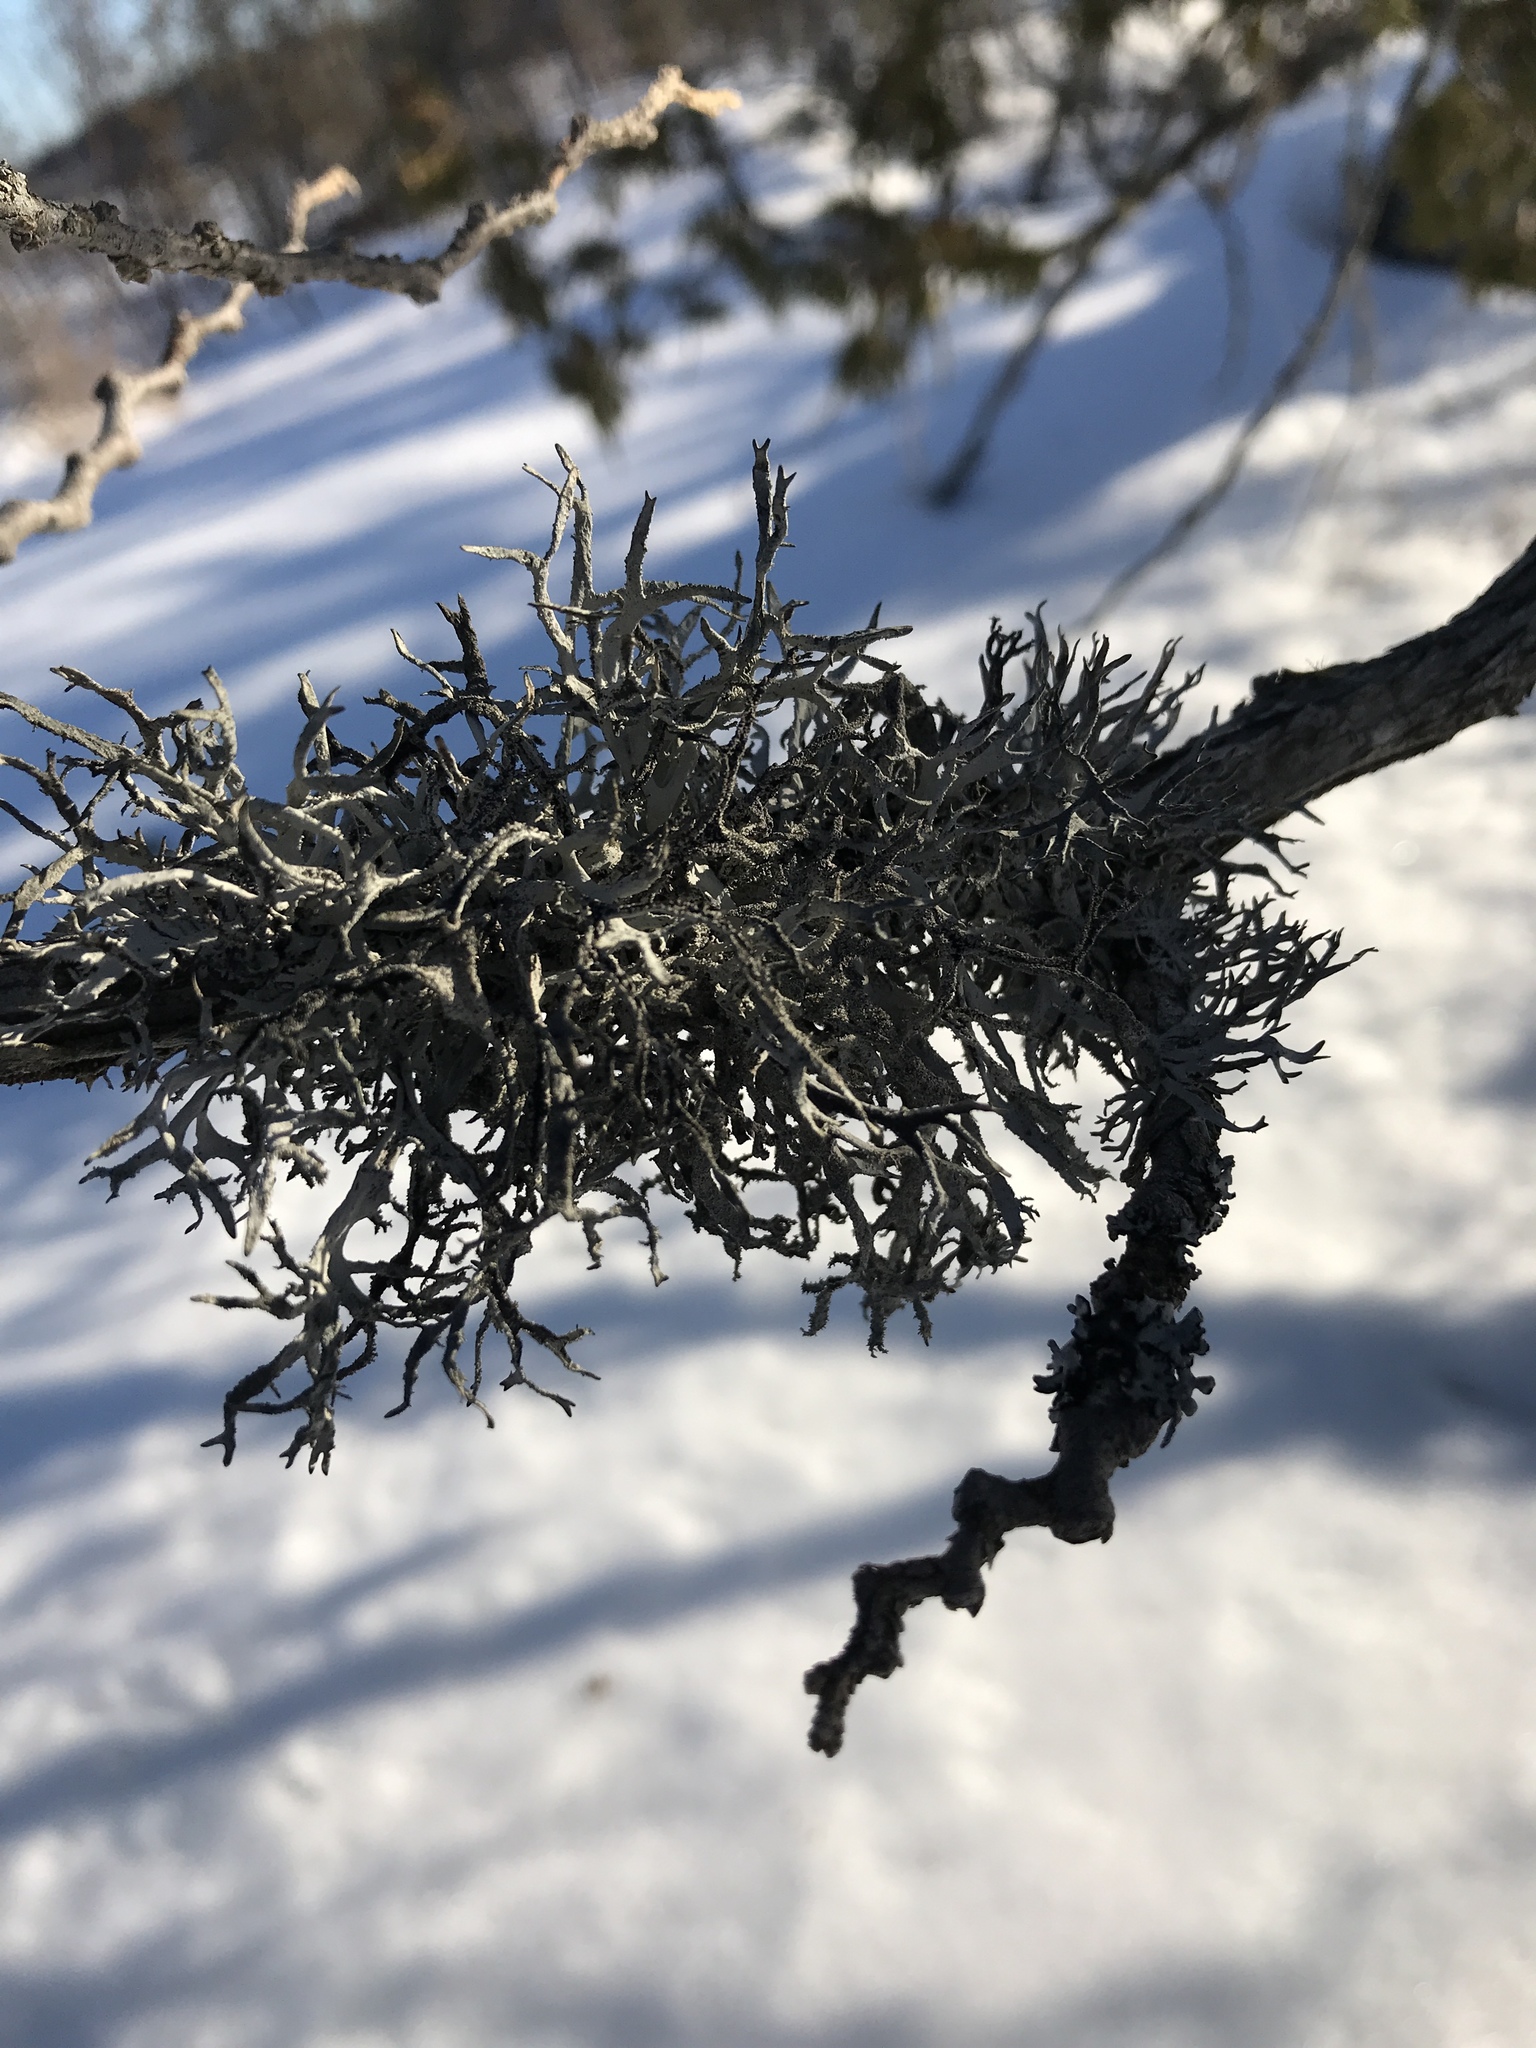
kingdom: Fungi
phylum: Ascomycota
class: Lecanoromycetes
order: Lecanorales
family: Parmeliaceae
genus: Pseudevernia
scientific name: Pseudevernia consocians
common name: Common antler lichen
